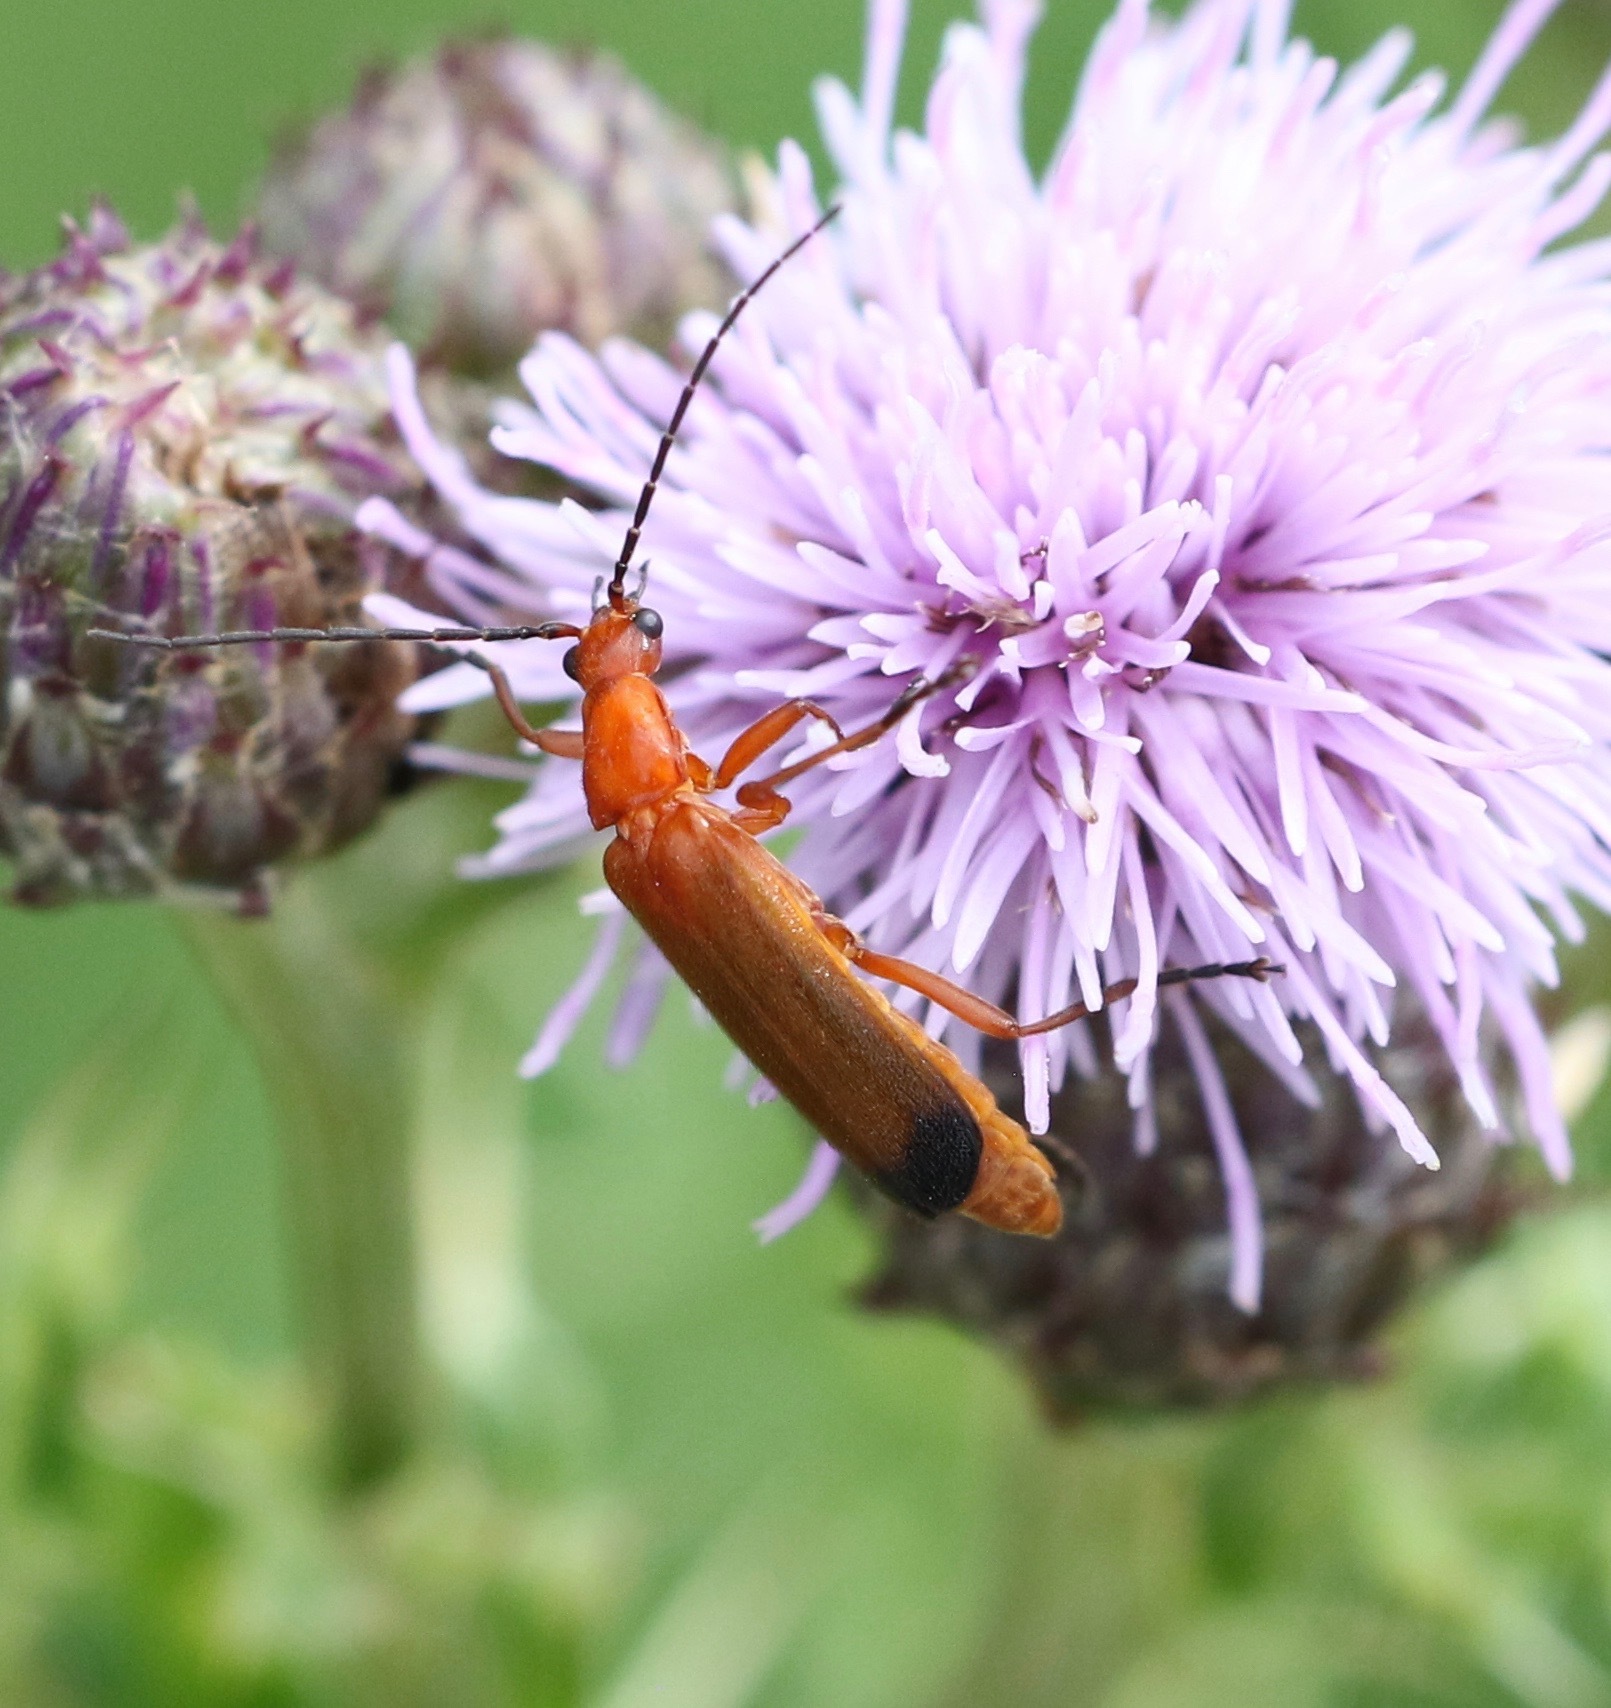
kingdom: Animalia
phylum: Arthropoda
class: Insecta
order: Coleoptera
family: Cantharidae
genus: Rhagonycha
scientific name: Rhagonycha fulva
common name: Common red soldier beetle
